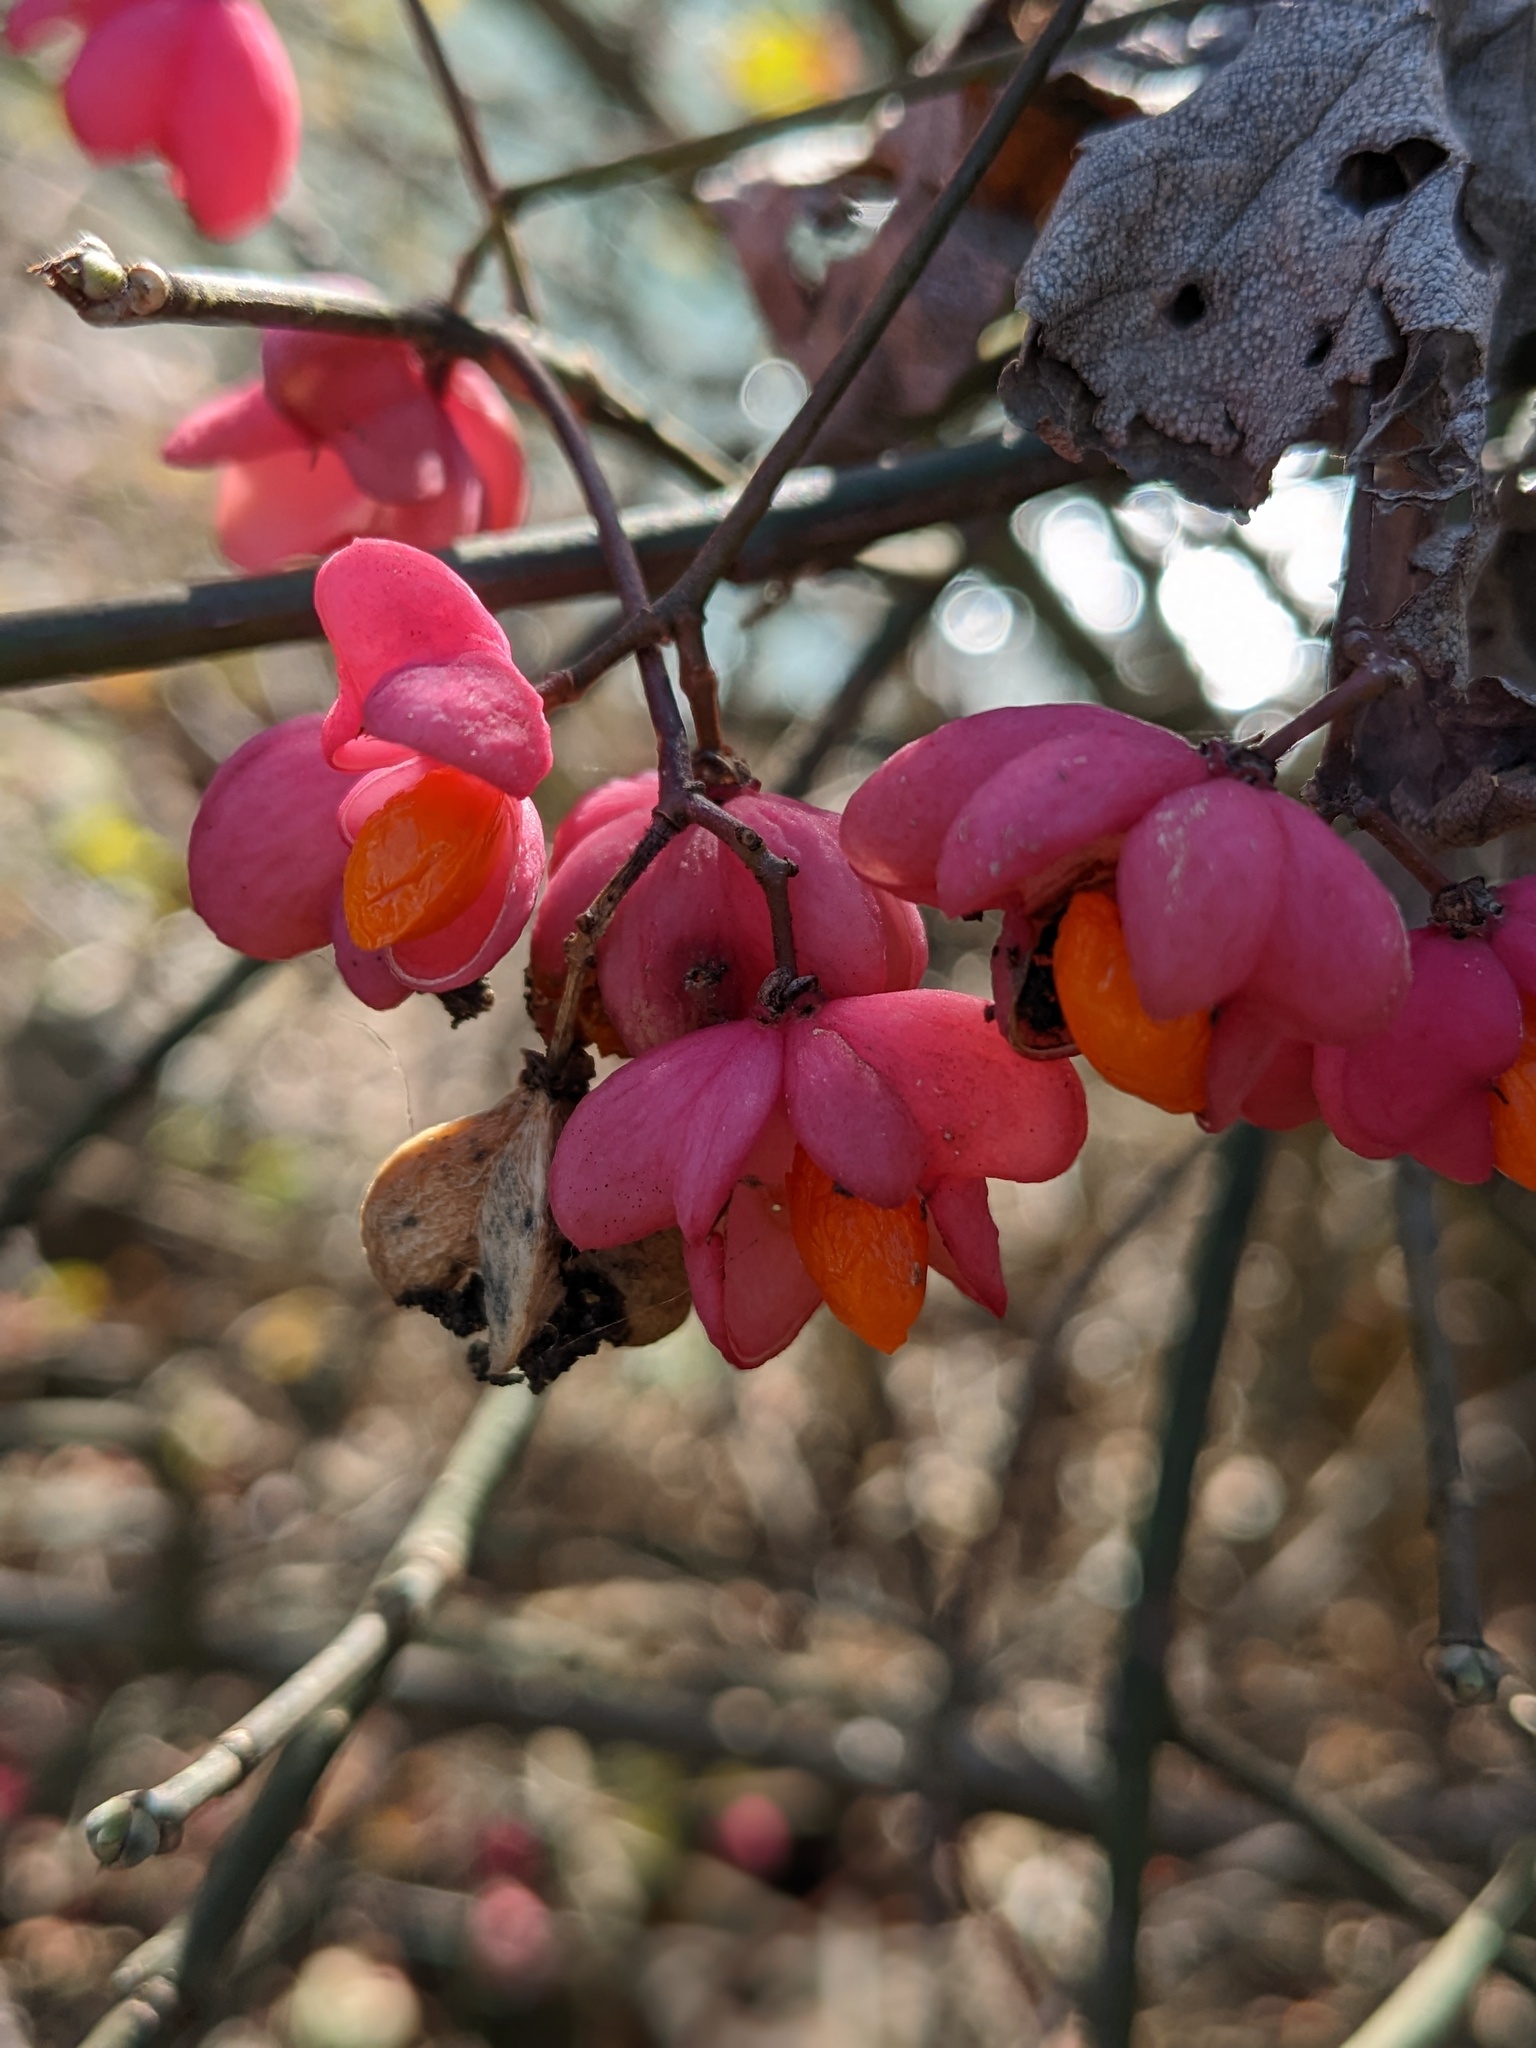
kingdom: Plantae
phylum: Tracheophyta
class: Magnoliopsida
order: Celastrales
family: Celastraceae
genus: Euonymus
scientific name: Euonymus europaeus
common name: Spindle
